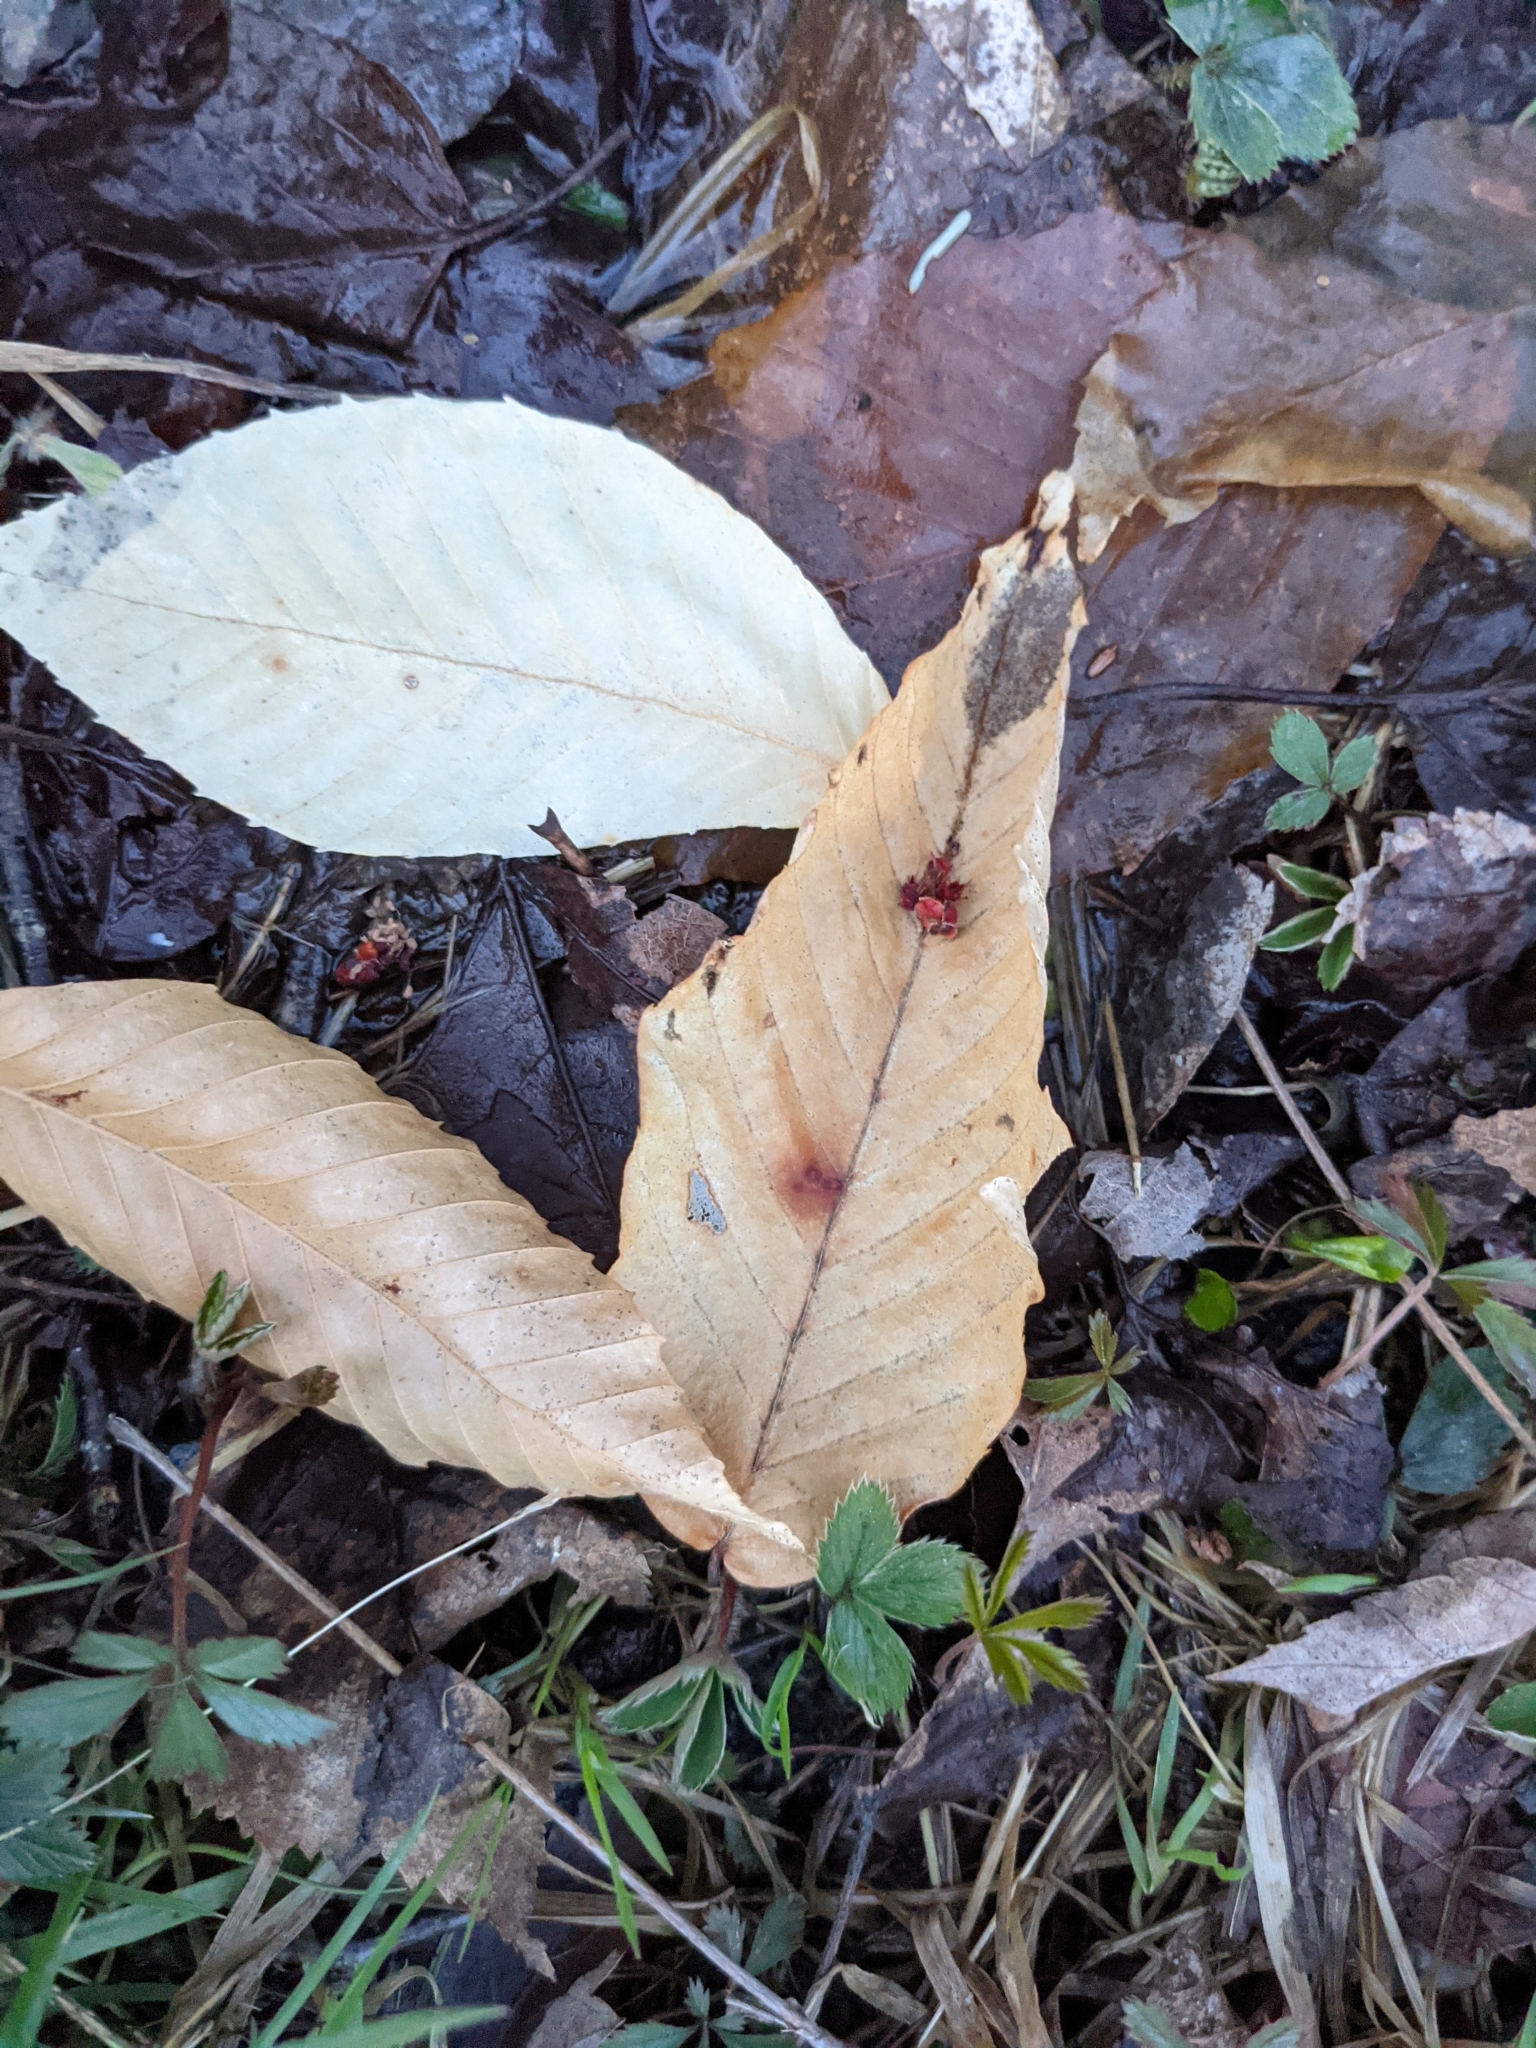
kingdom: Plantae
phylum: Tracheophyta
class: Magnoliopsida
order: Fagales
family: Fagaceae
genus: Fagus
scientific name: Fagus grandifolia
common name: American beech
